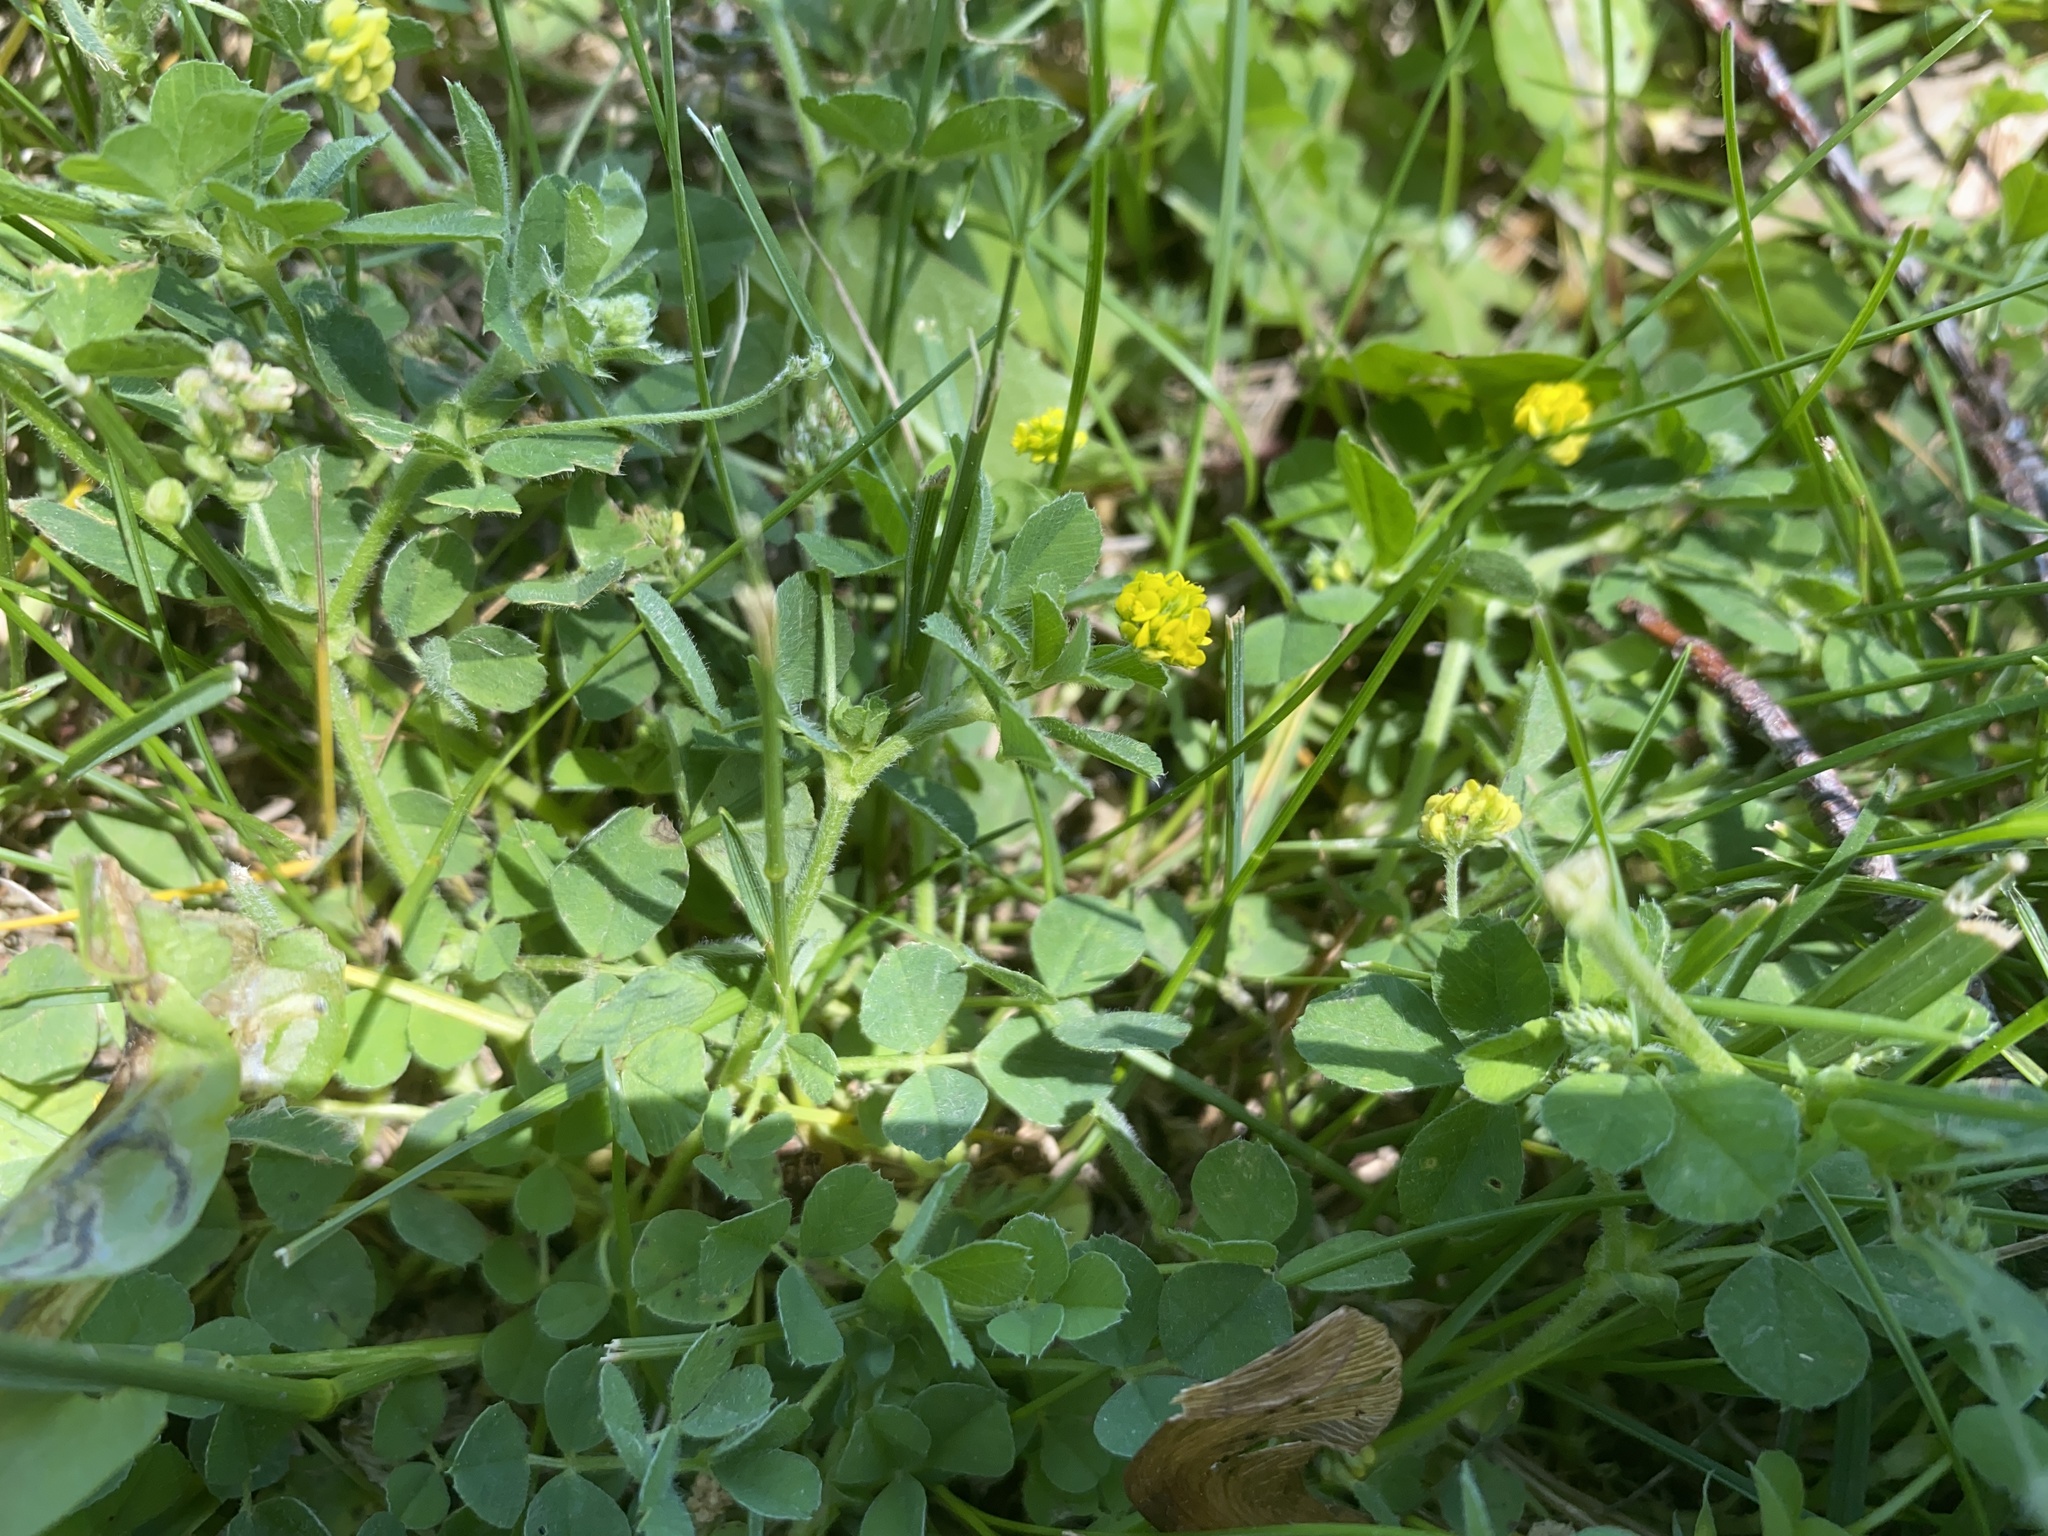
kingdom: Plantae
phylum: Tracheophyta
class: Magnoliopsida
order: Fabales
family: Fabaceae
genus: Medicago
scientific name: Medicago lupulina
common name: Black medick
